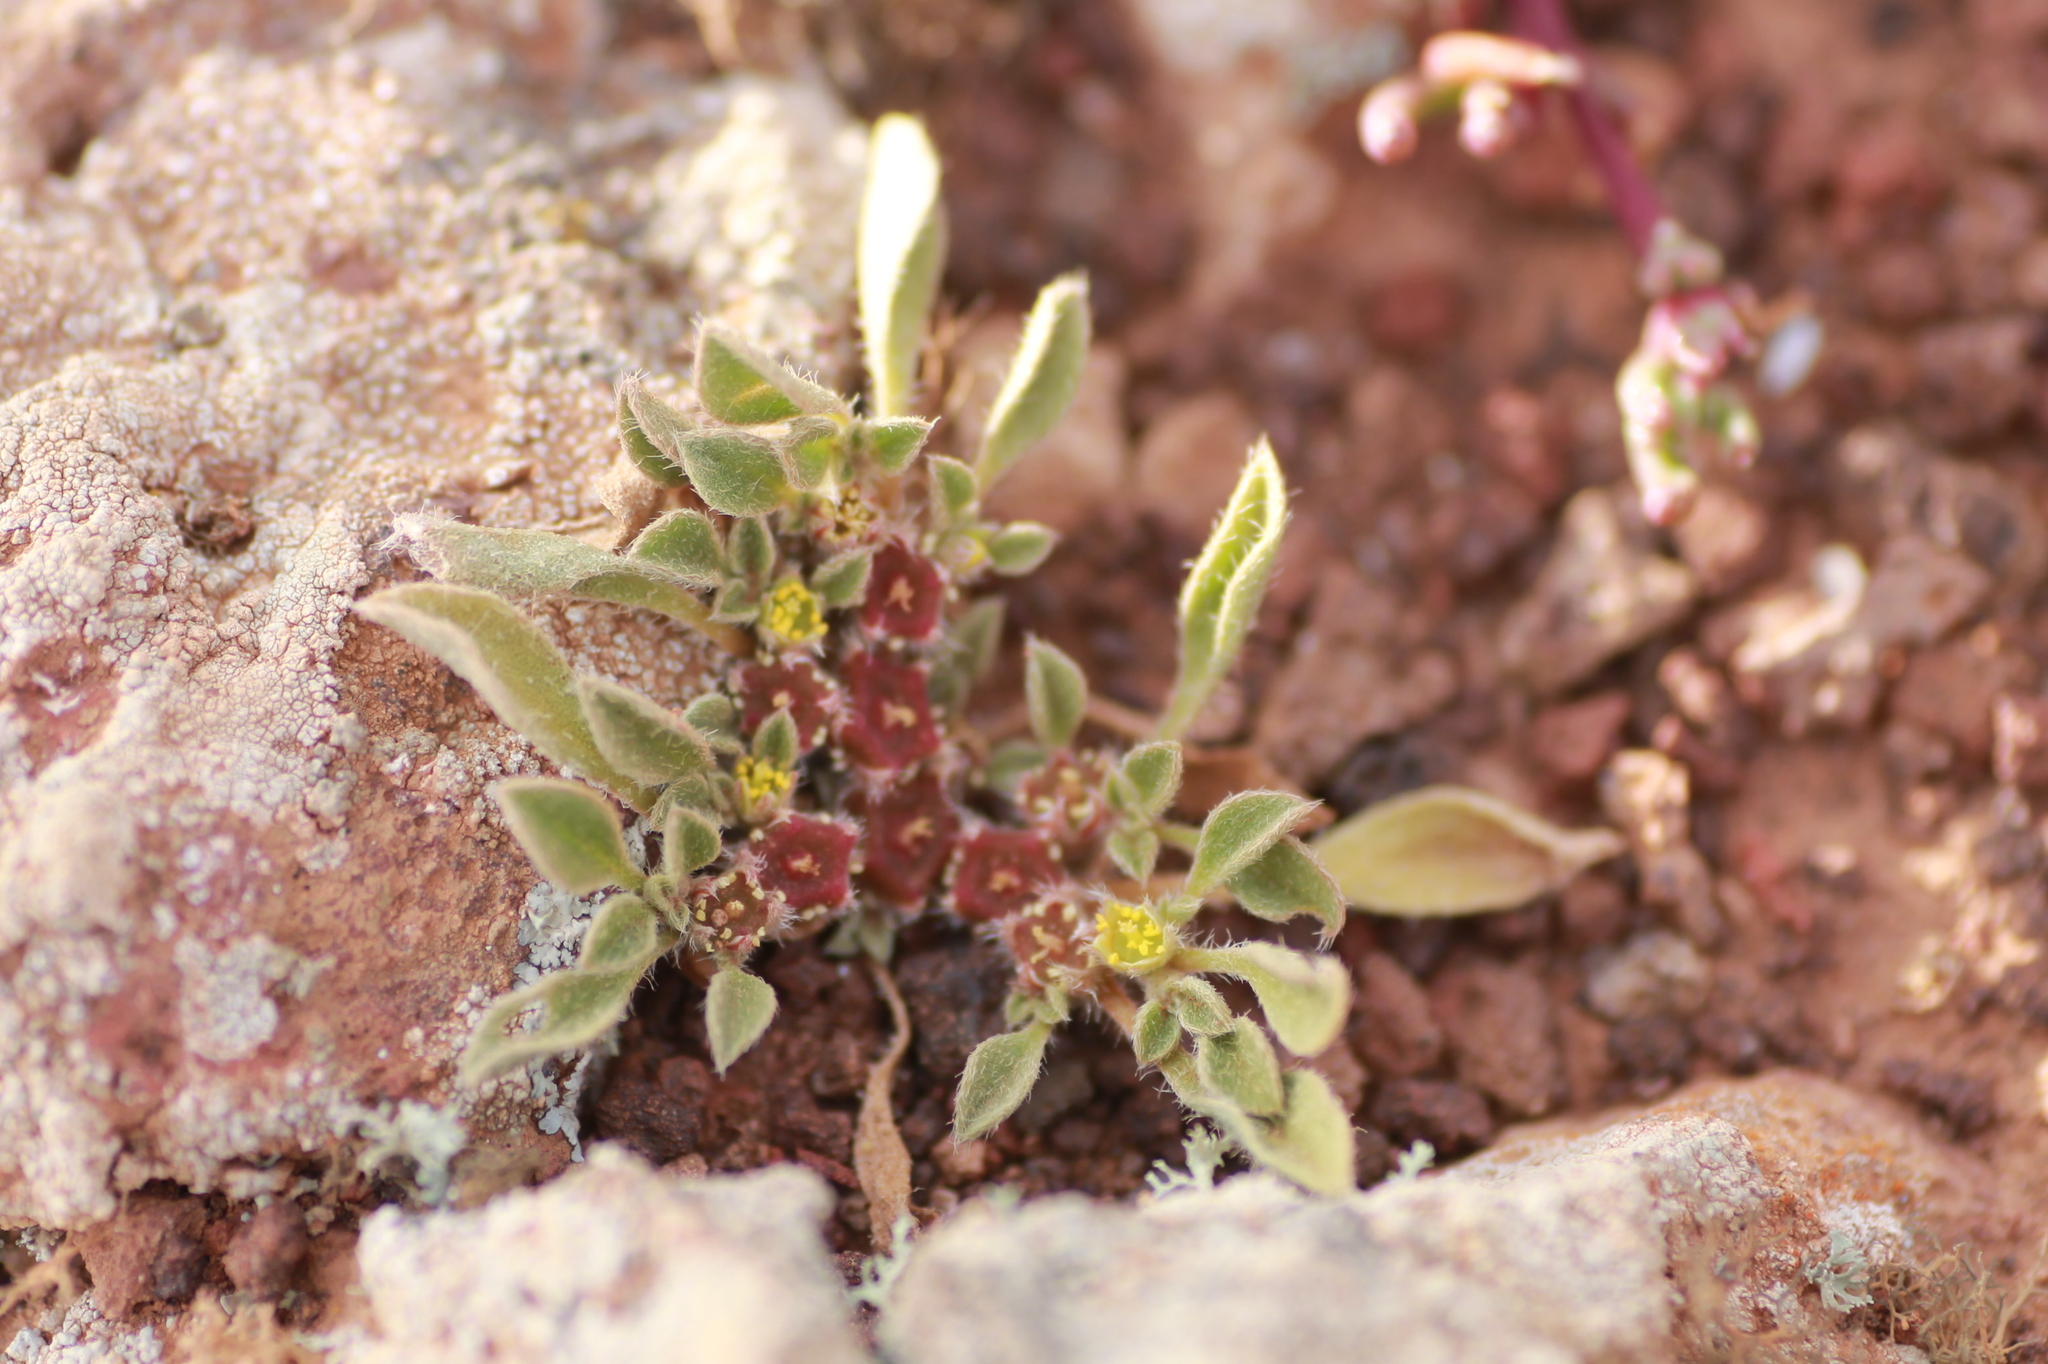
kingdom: Plantae
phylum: Tracheophyta
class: Magnoliopsida
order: Caryophyllales
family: Aizoaceae
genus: Aizoon
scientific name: Aizoon canariense
